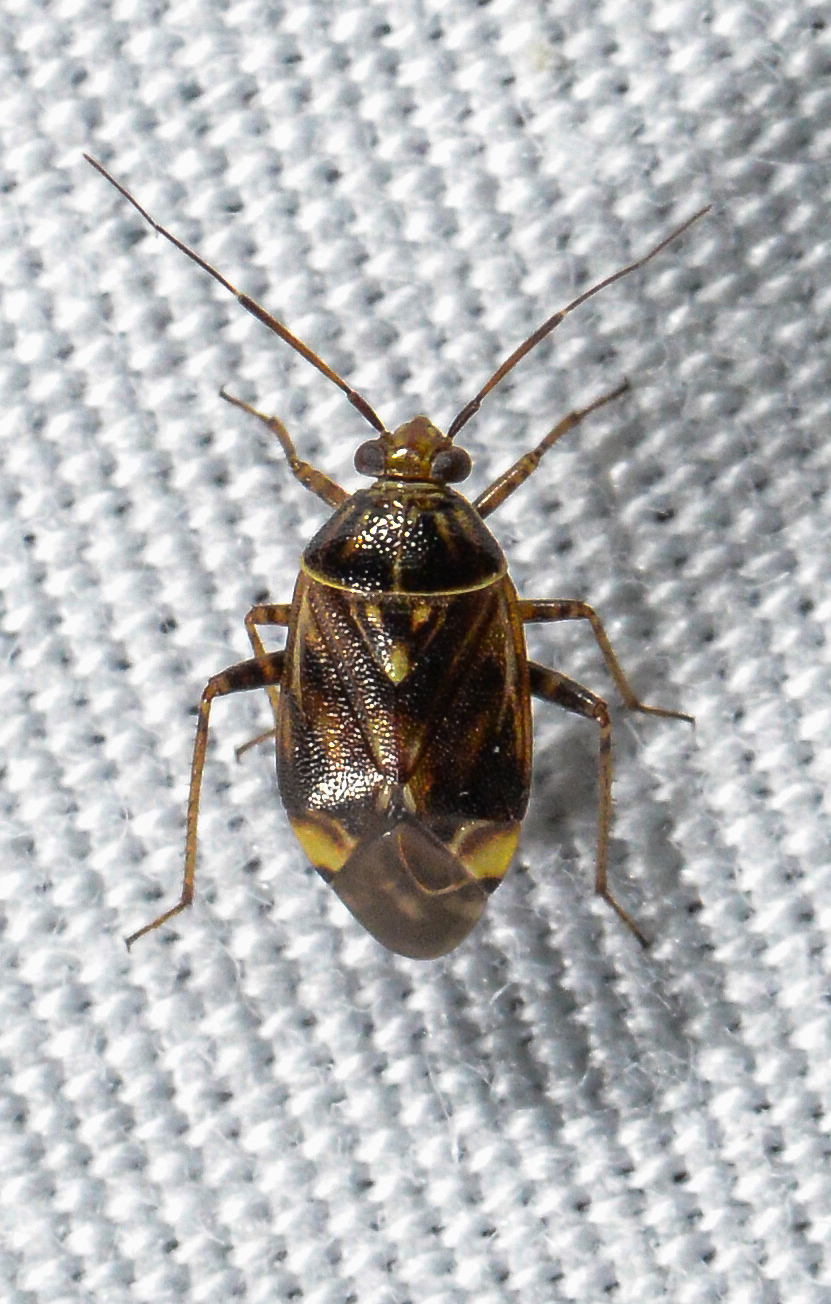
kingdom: Animalia
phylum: Arthropoda
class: Insecta
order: Hemiptera
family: Miridae
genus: Lygus
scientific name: Lygus lineolaris
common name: North american tarnished plant bug
